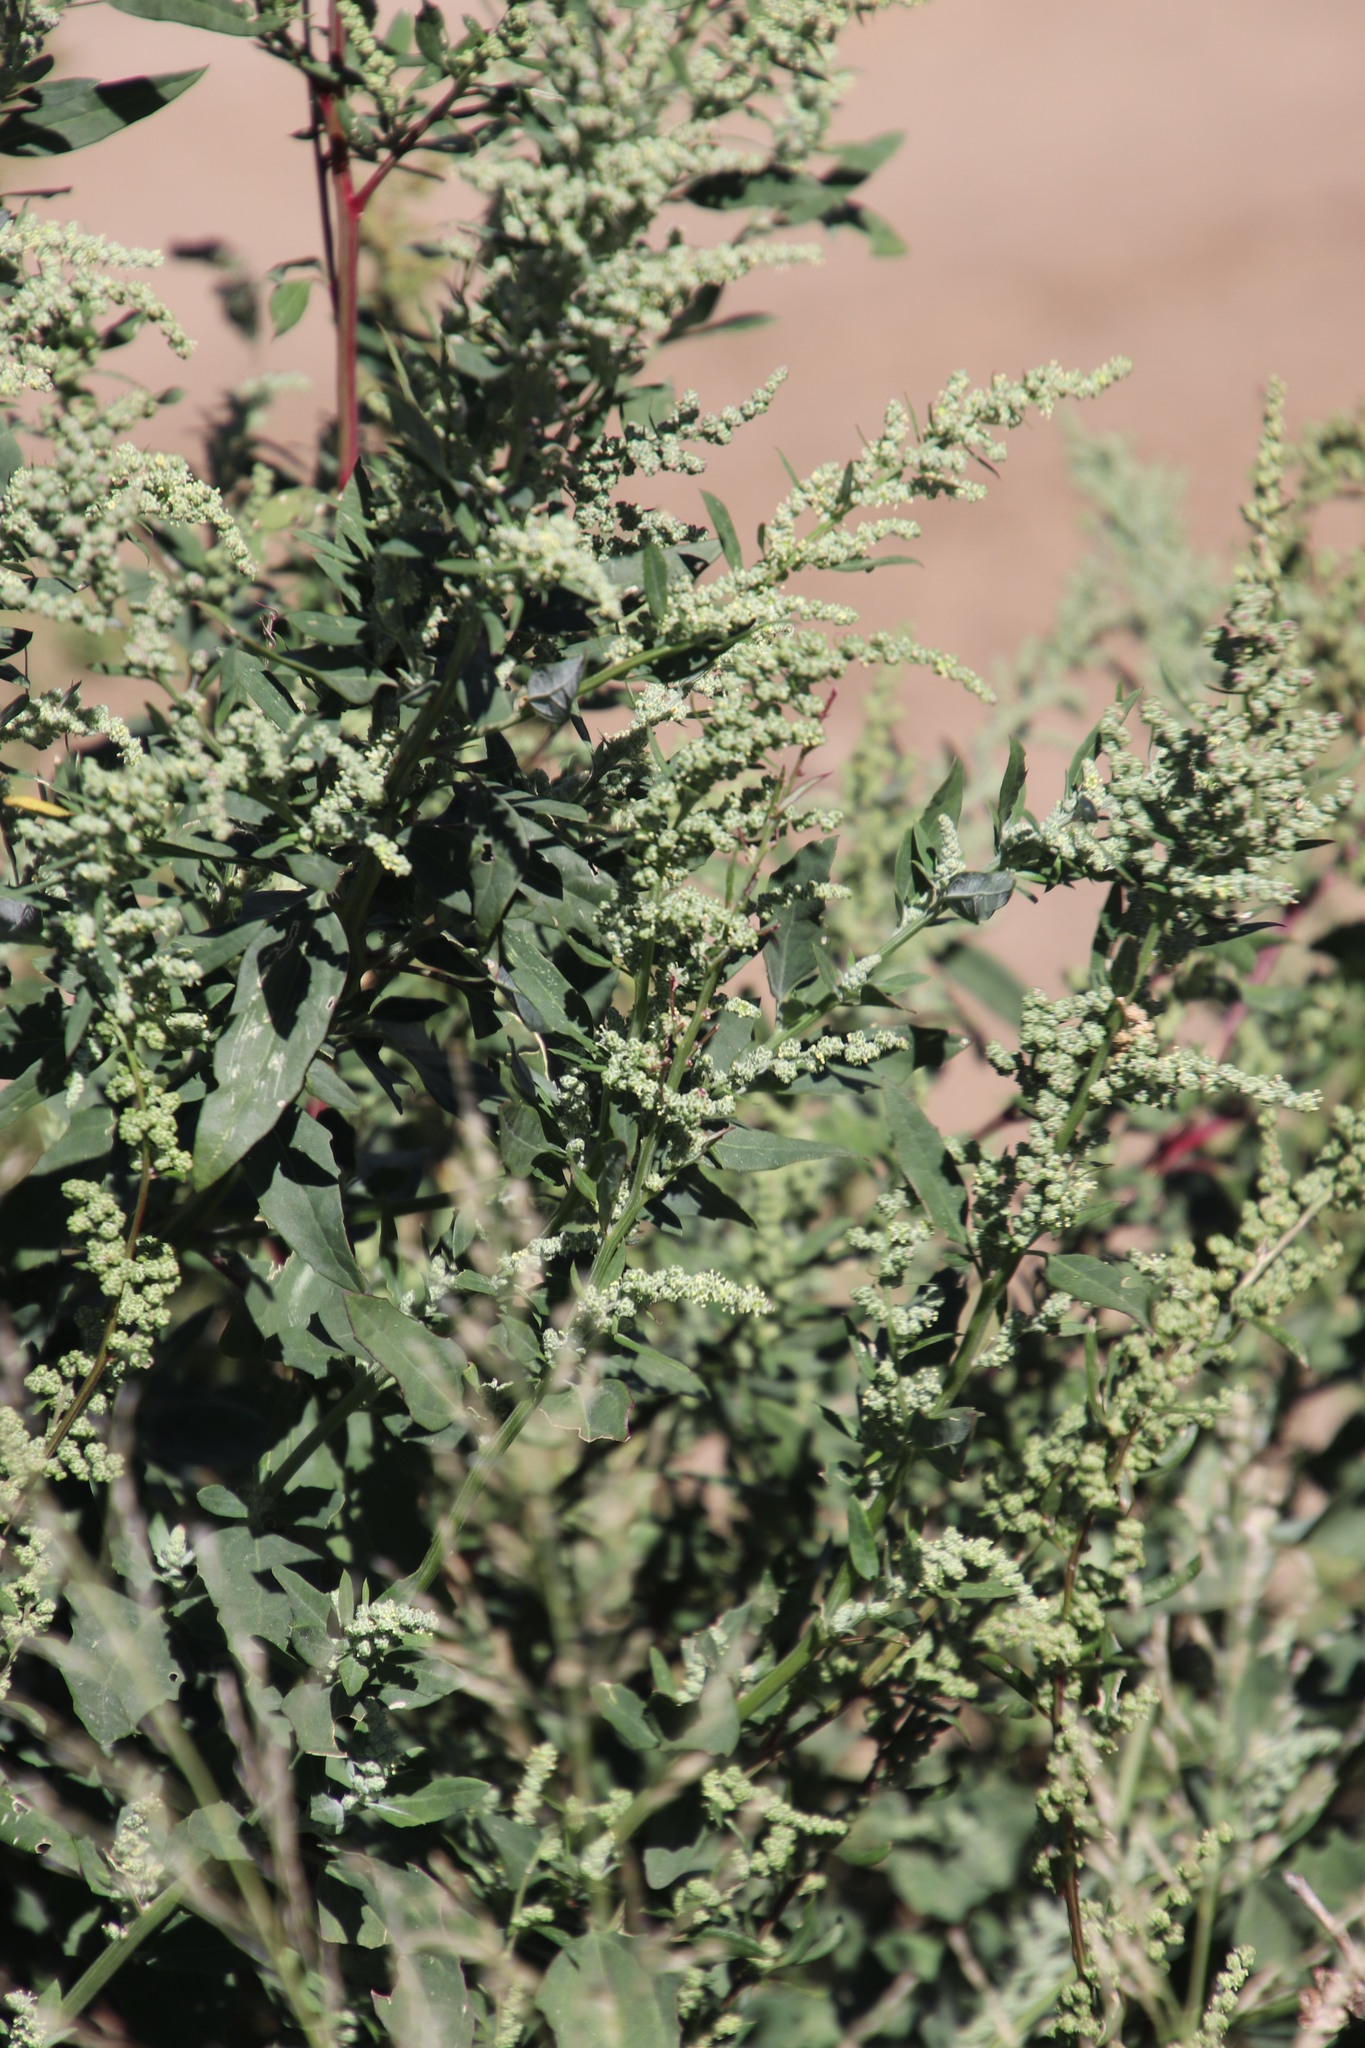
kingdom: Plantae
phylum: Tracheophyta
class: Magnoliopsida
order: Caryophyllales
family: Amaranthaceae
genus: Chenopodium
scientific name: Chenopodium album
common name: Fat-hen
